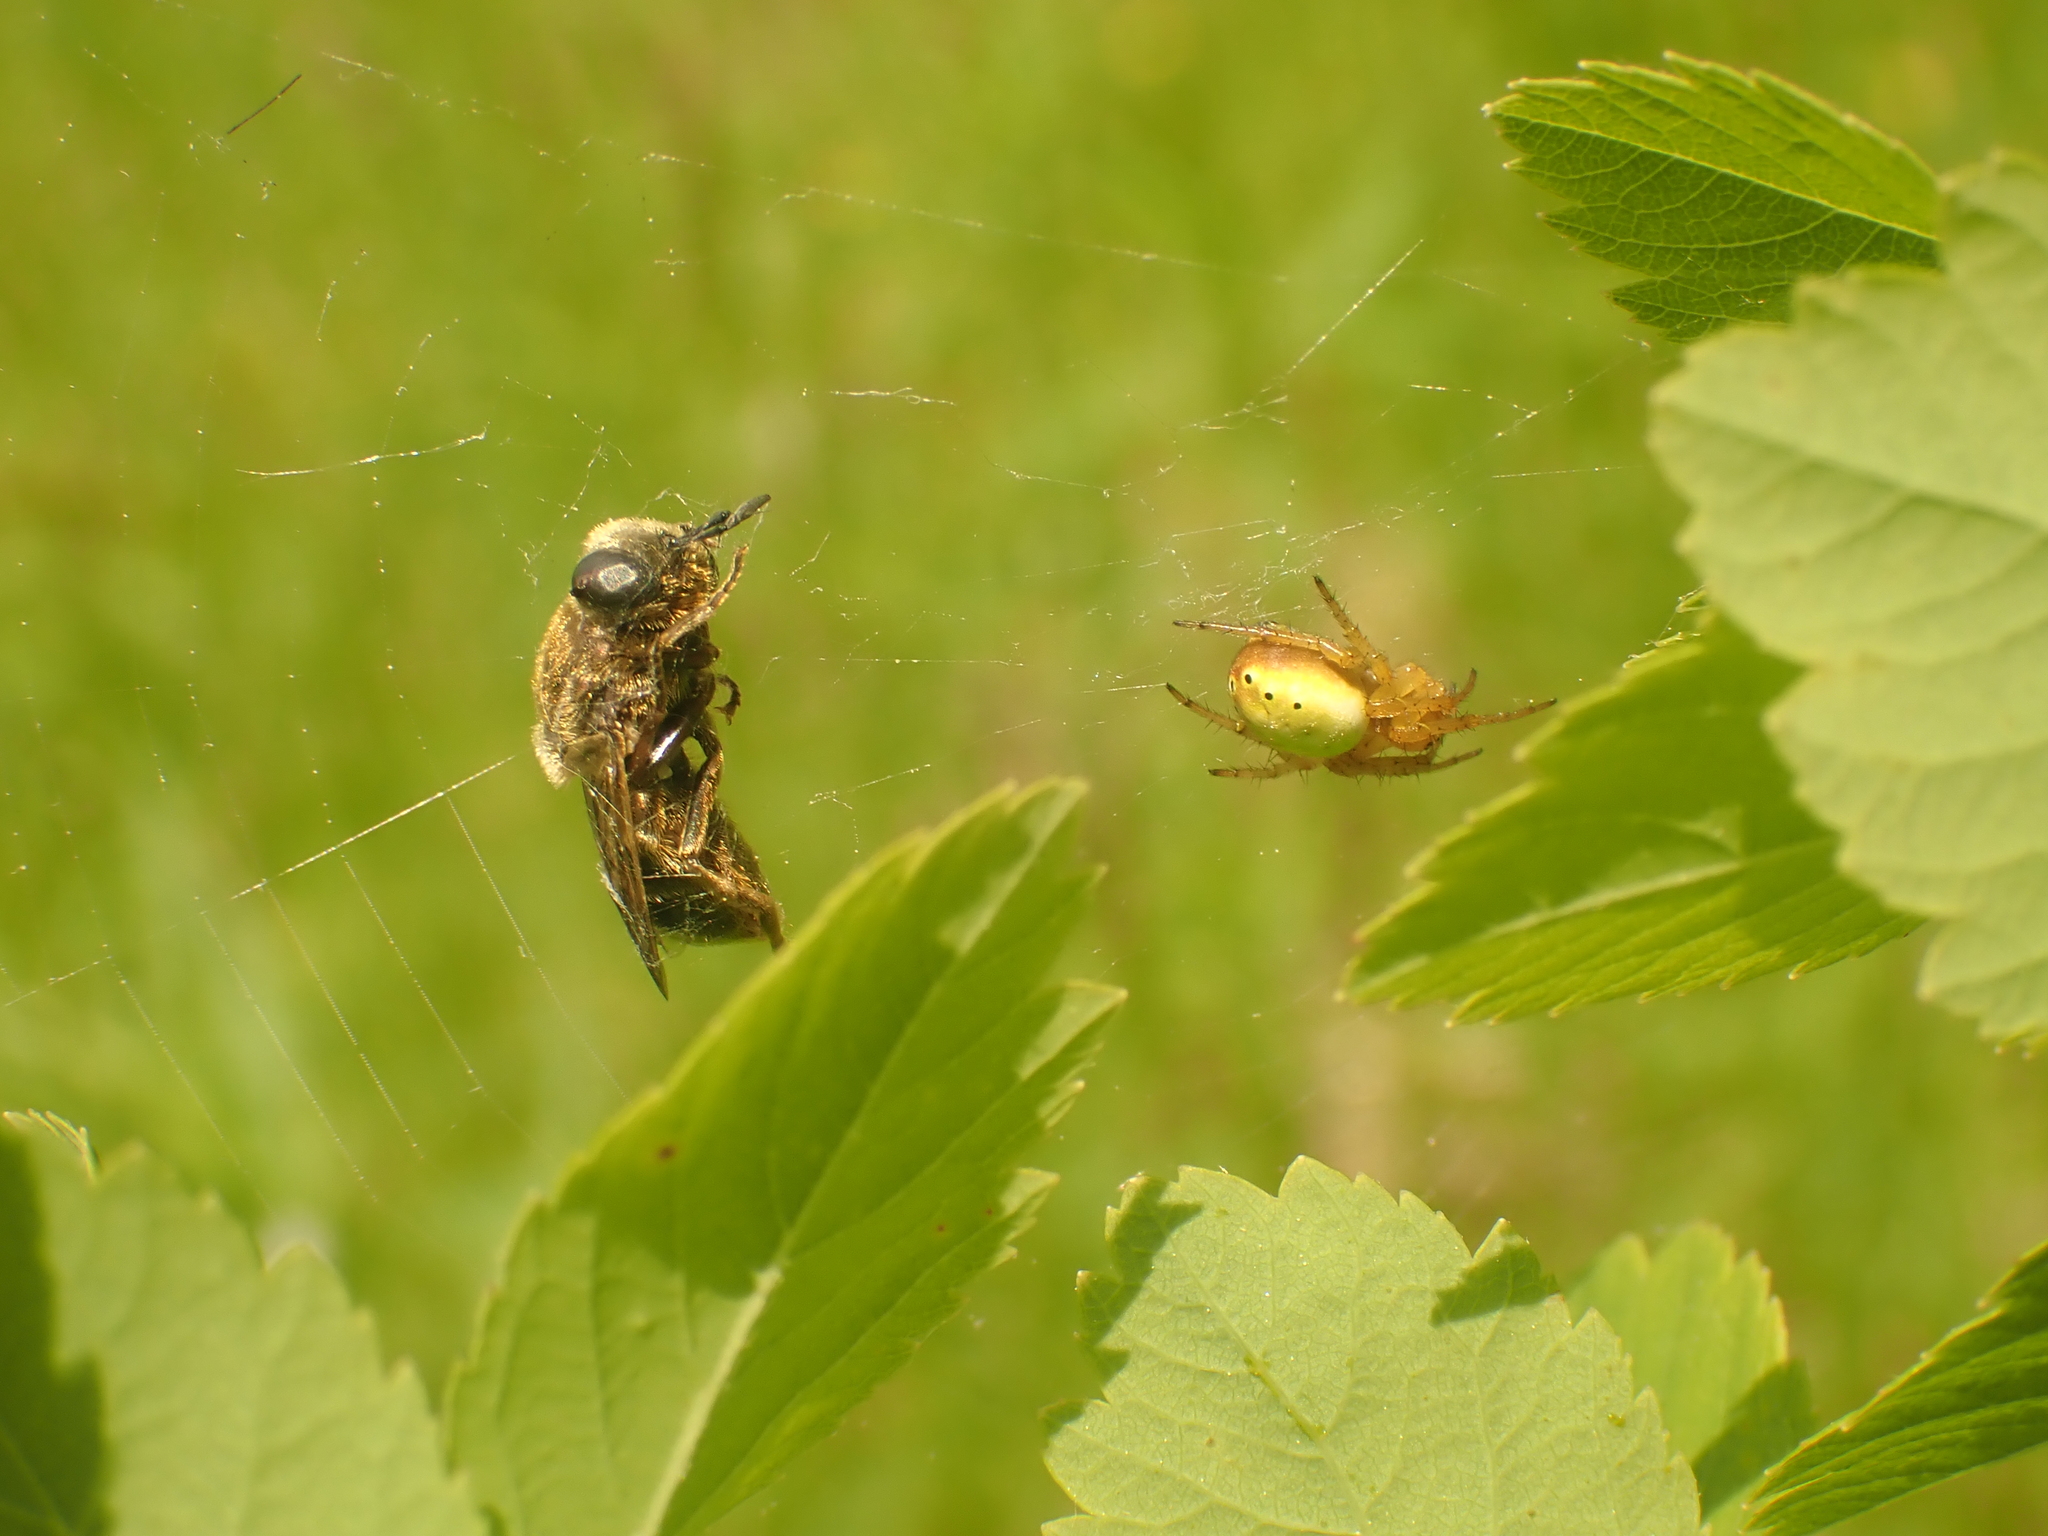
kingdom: Animalia
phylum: Arthropoda
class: Arachnida
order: Araneae
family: Araneidae
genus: Araniella
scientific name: Araniella displicata
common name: Sixspotted orb weaver
